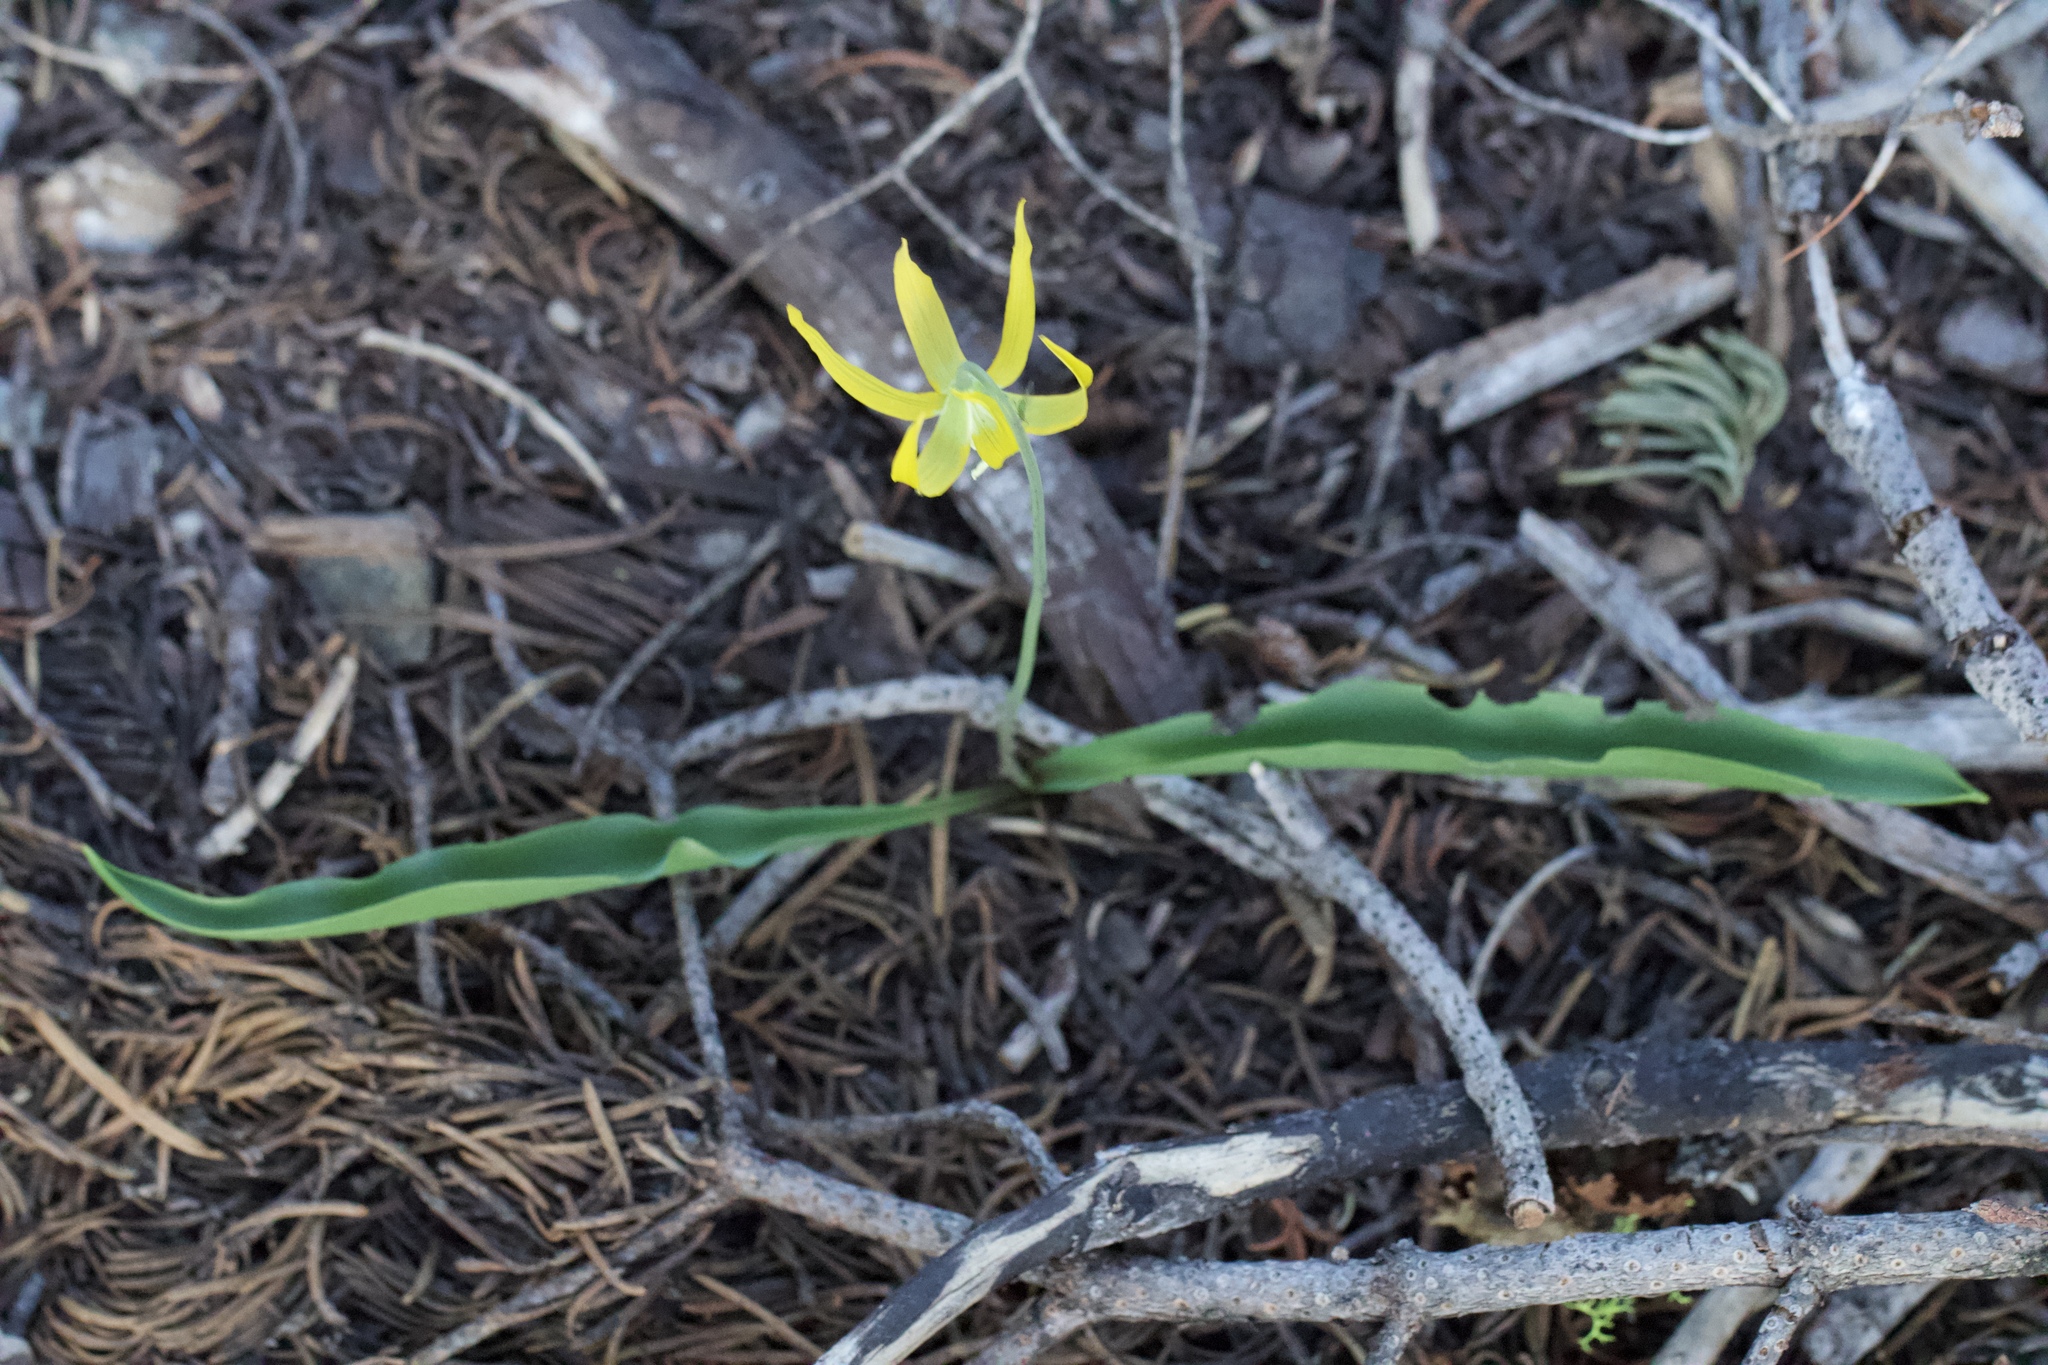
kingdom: Plantae
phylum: Tracheophyta
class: Liliopsida
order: Liliales
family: Liliaceae
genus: Erythronium
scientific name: Erythronium grandiflorum
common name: Avalanche-lily
